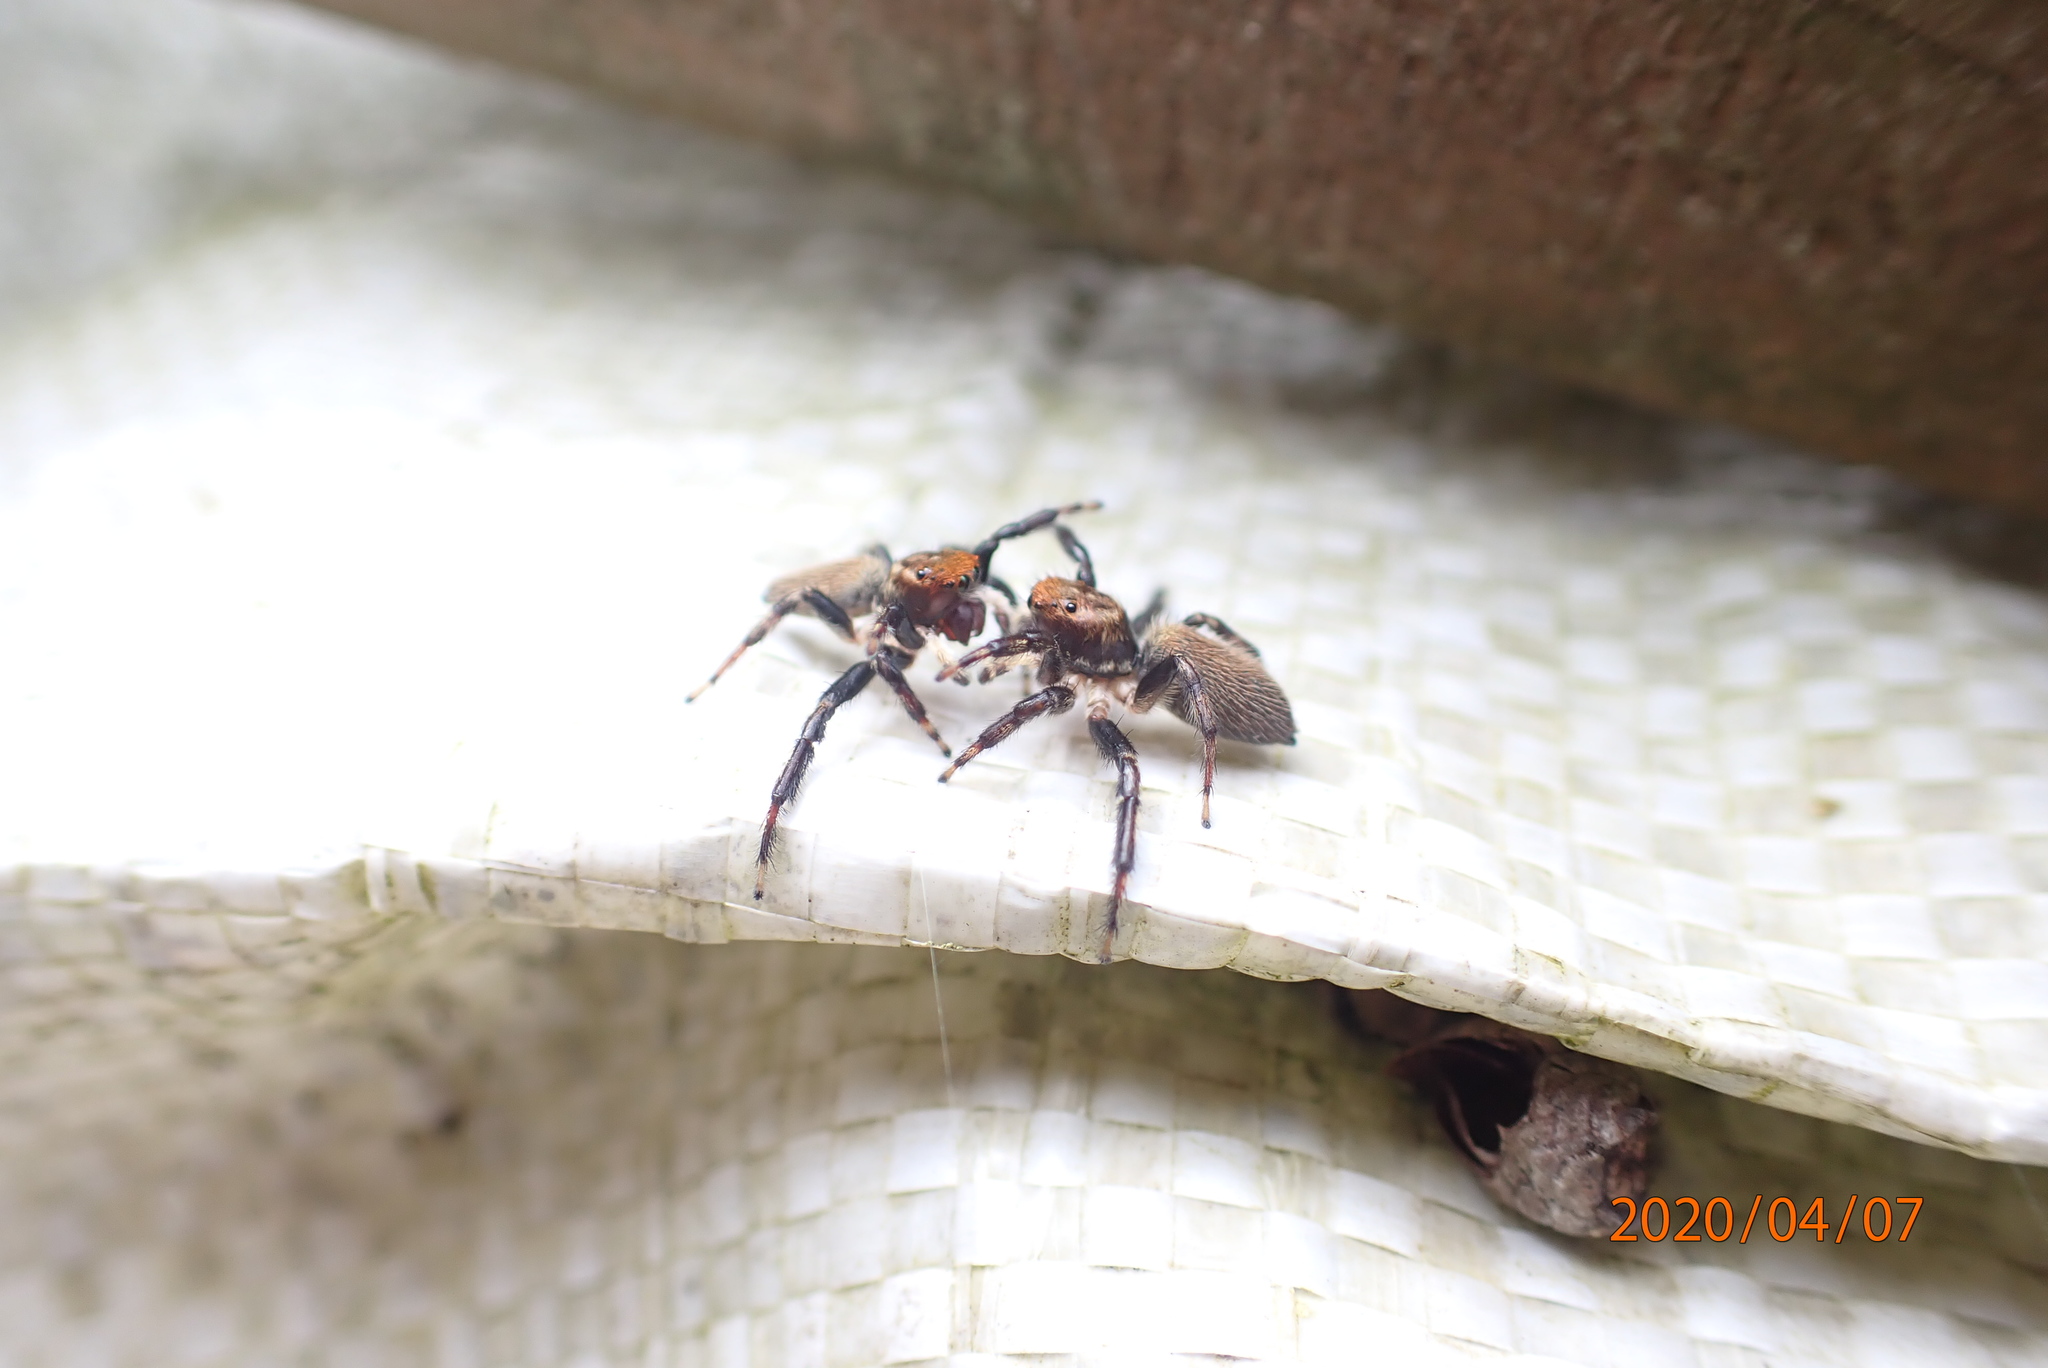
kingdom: Animalia
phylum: Arthropoda
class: Arachnida
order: Araneae
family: Salticidae
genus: Maratus
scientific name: Maratus griseus
